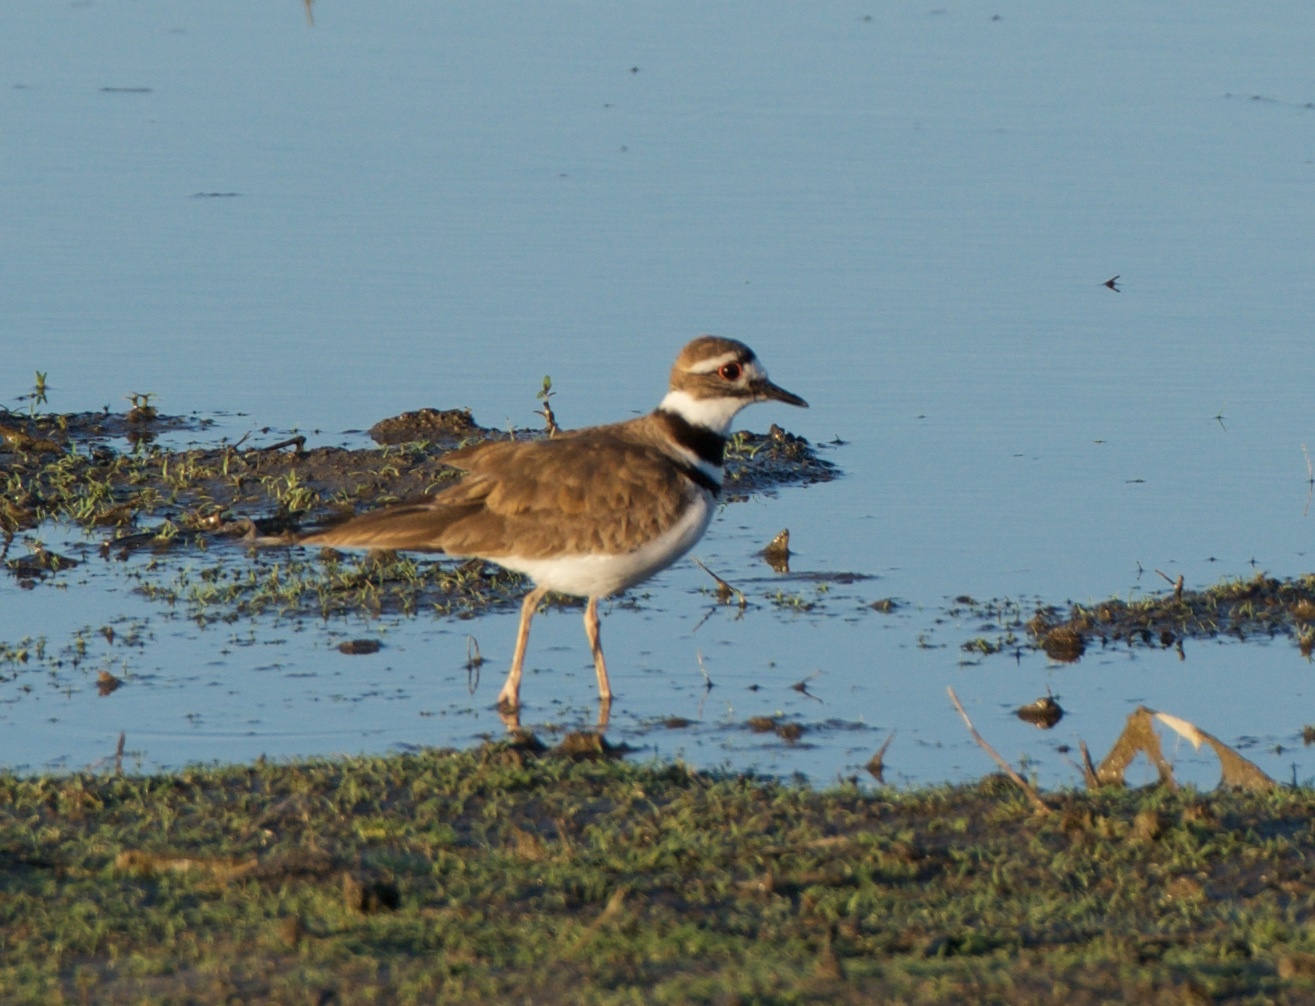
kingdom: Animalia
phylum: Chordata
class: Aves
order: Charadriiformes
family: Charadriidae
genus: Charadrius
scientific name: Charadrius vociferus
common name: Killdeer
